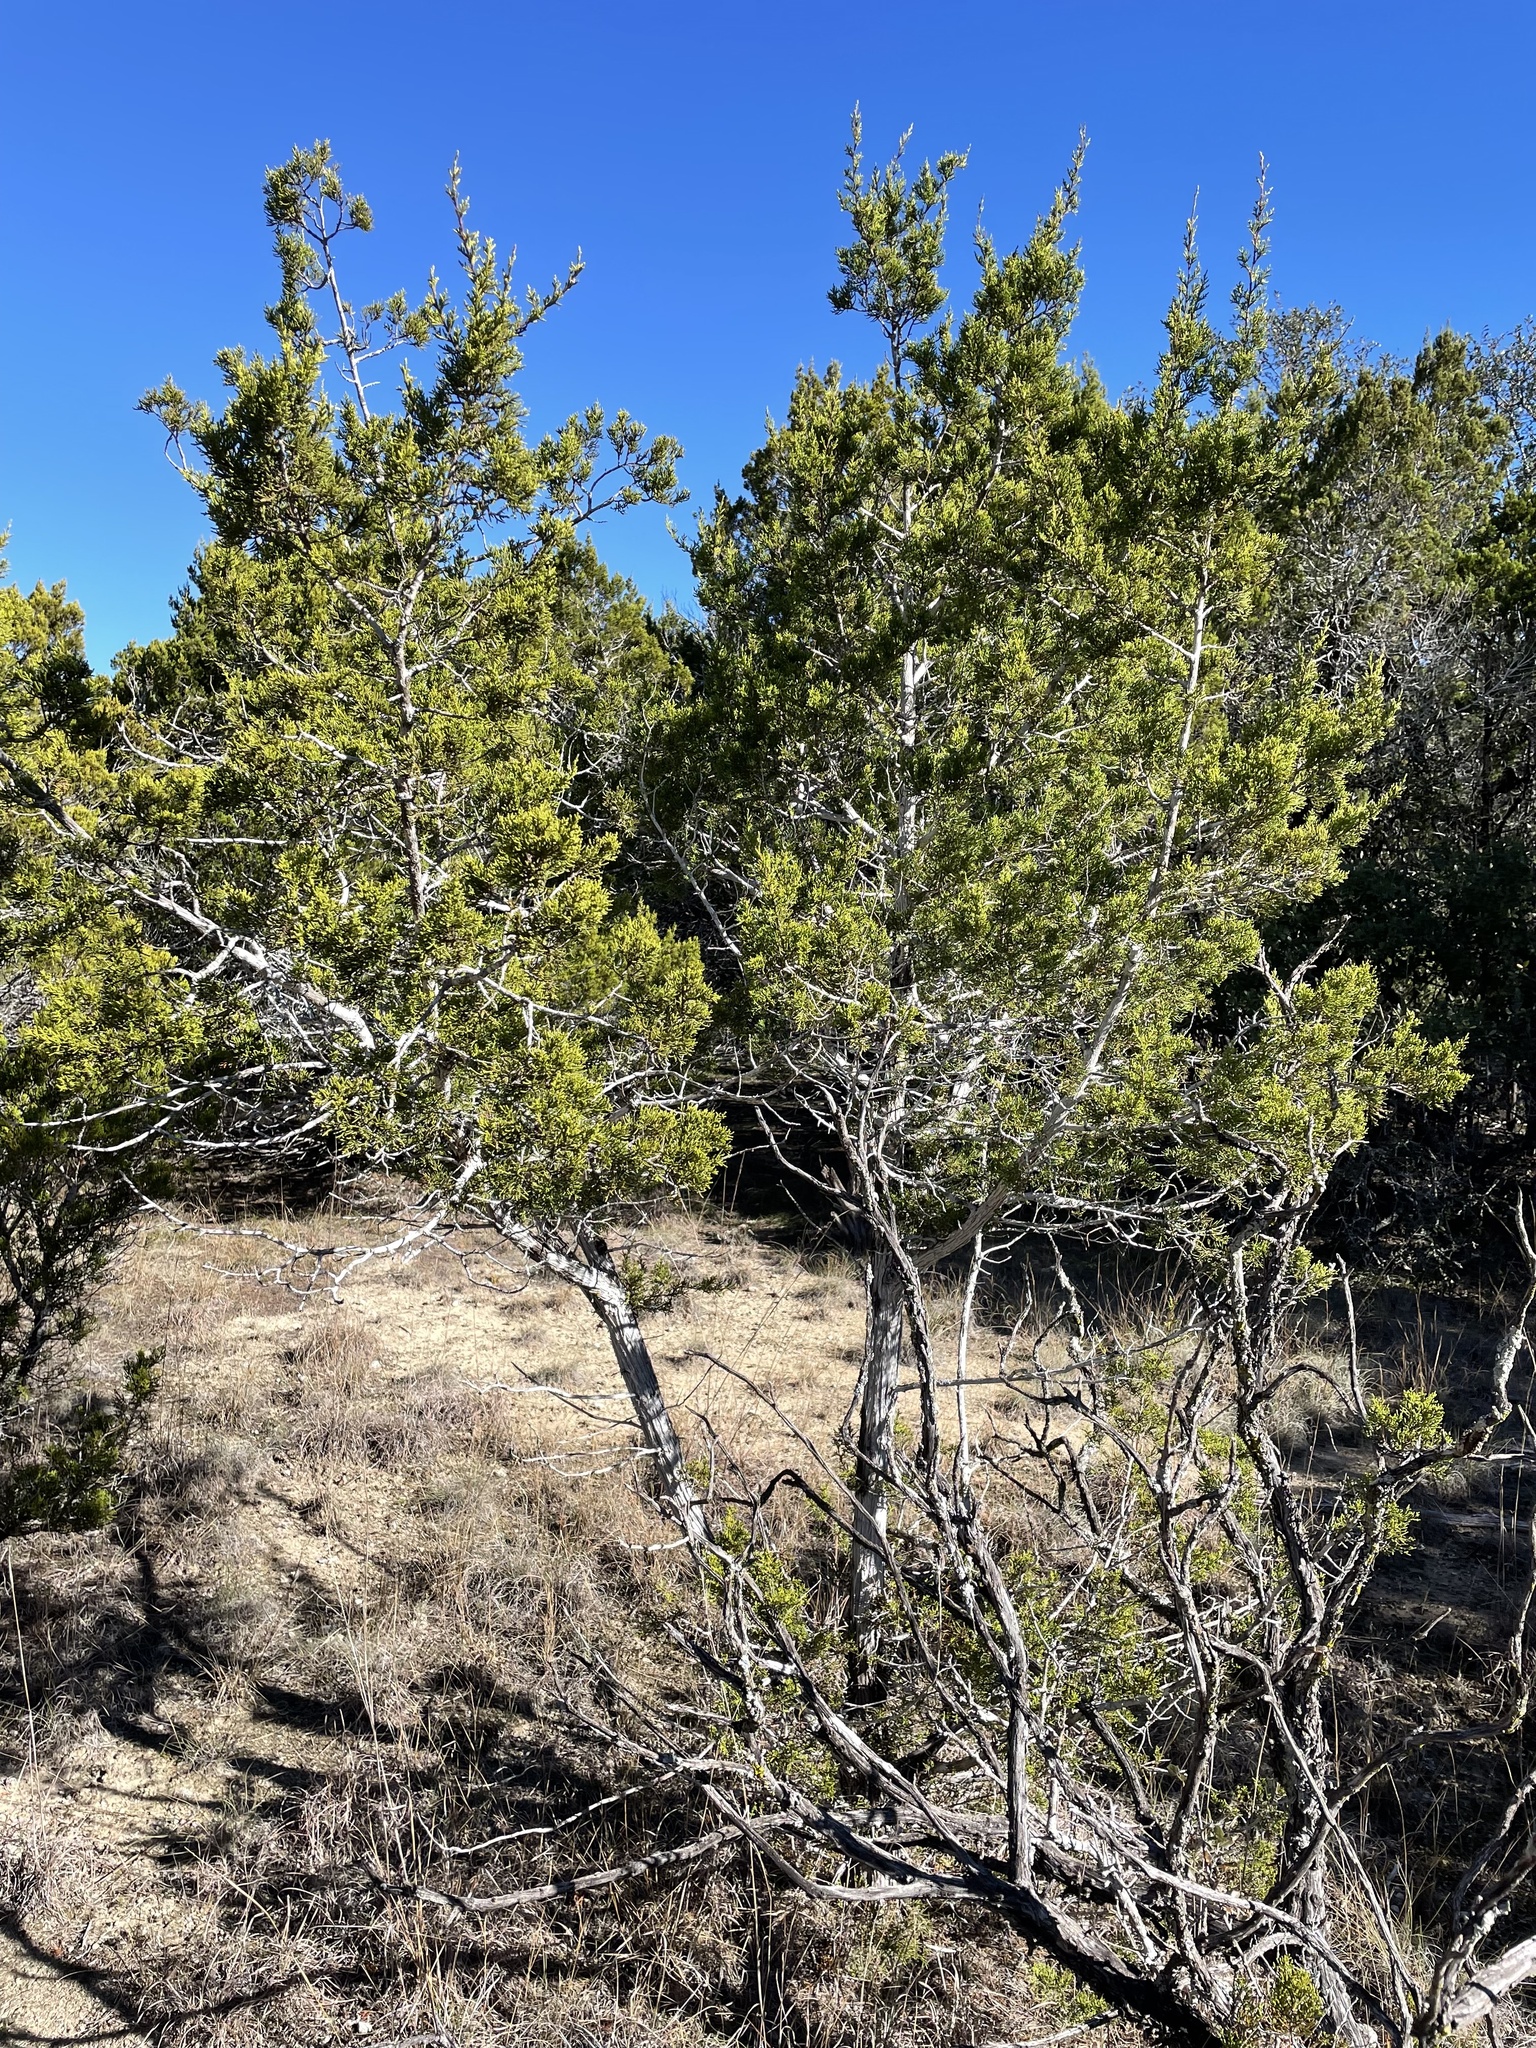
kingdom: Fungi
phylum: Ascomycota
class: Lecanoromycetes
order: Ostropales
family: Stictidaceae
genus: Robergea
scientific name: Robergea
